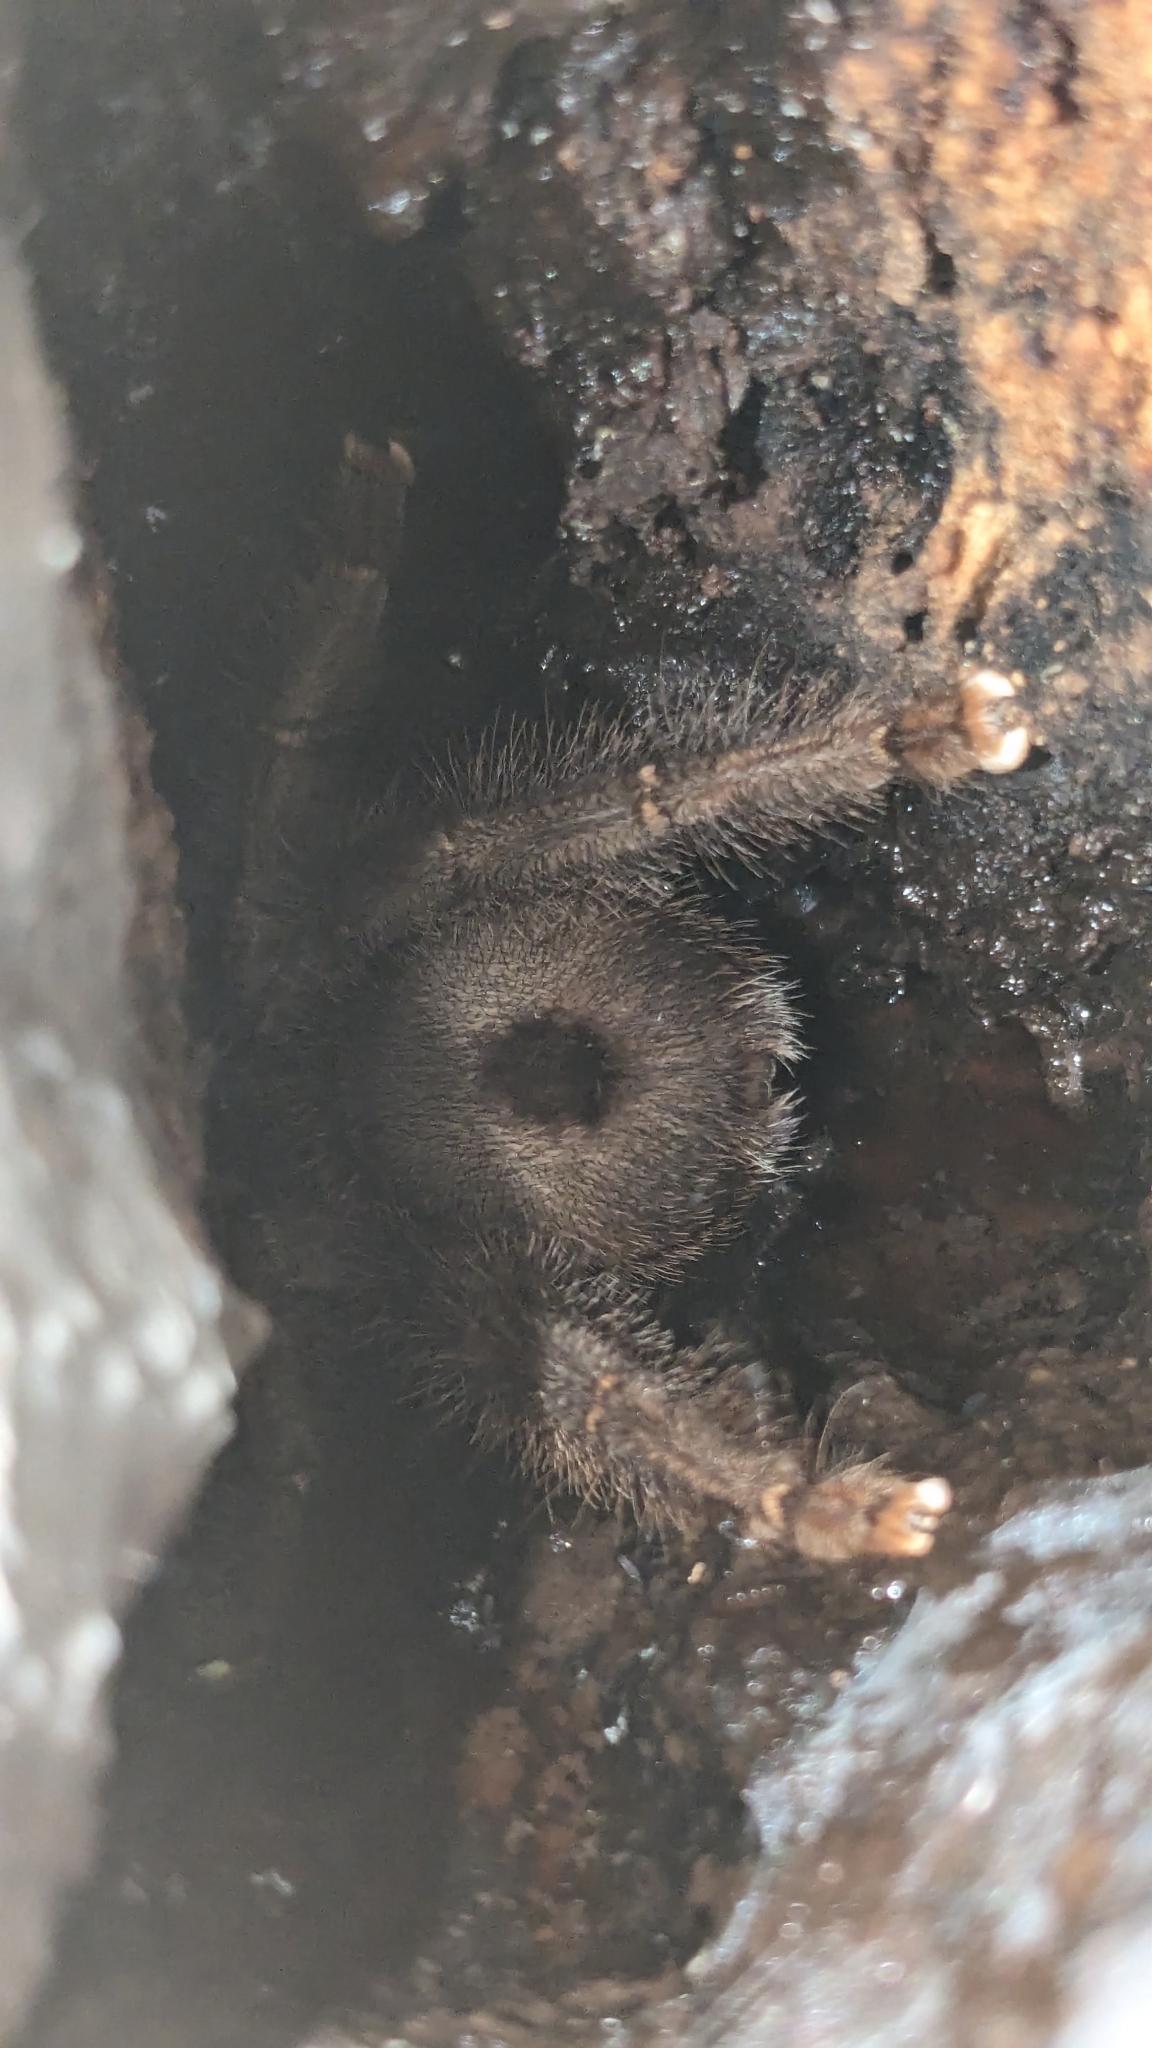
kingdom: Animalia
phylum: Arthropoda
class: Arachnida
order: Araneae
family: Theraphosidae
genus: Caribena
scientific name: Caribena laeta
